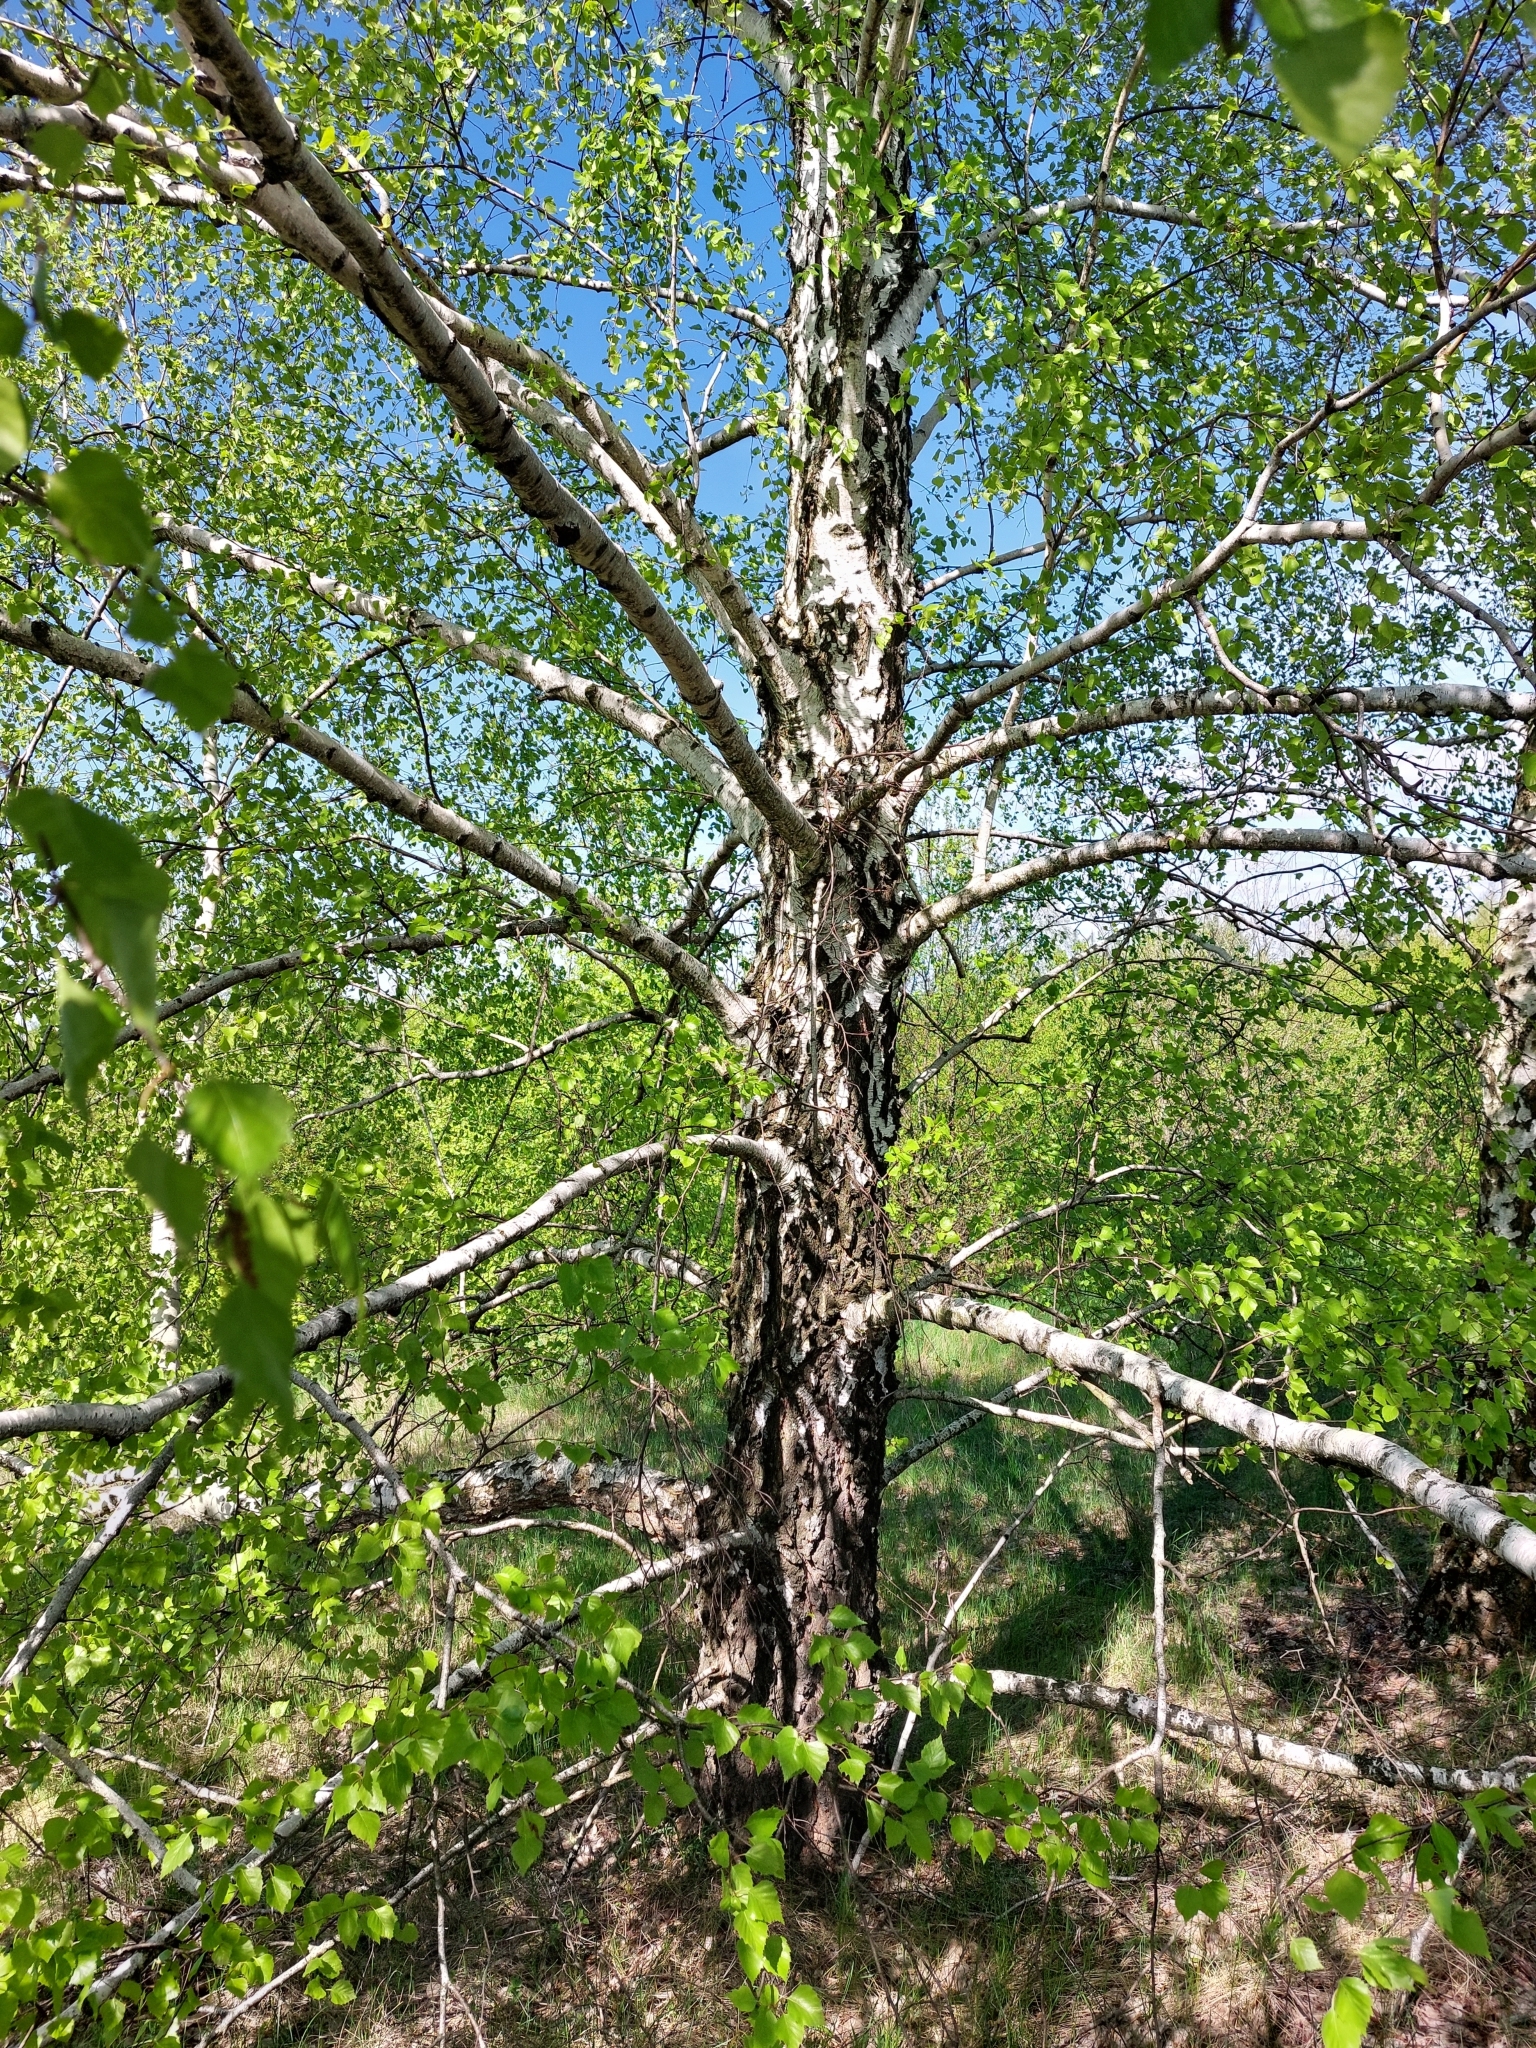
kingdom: Plantae
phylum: Tracheophyta
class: Magnoliopsida
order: Fagales
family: Betulaceae
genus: Betula
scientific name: Betula pendula
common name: Silver birch
